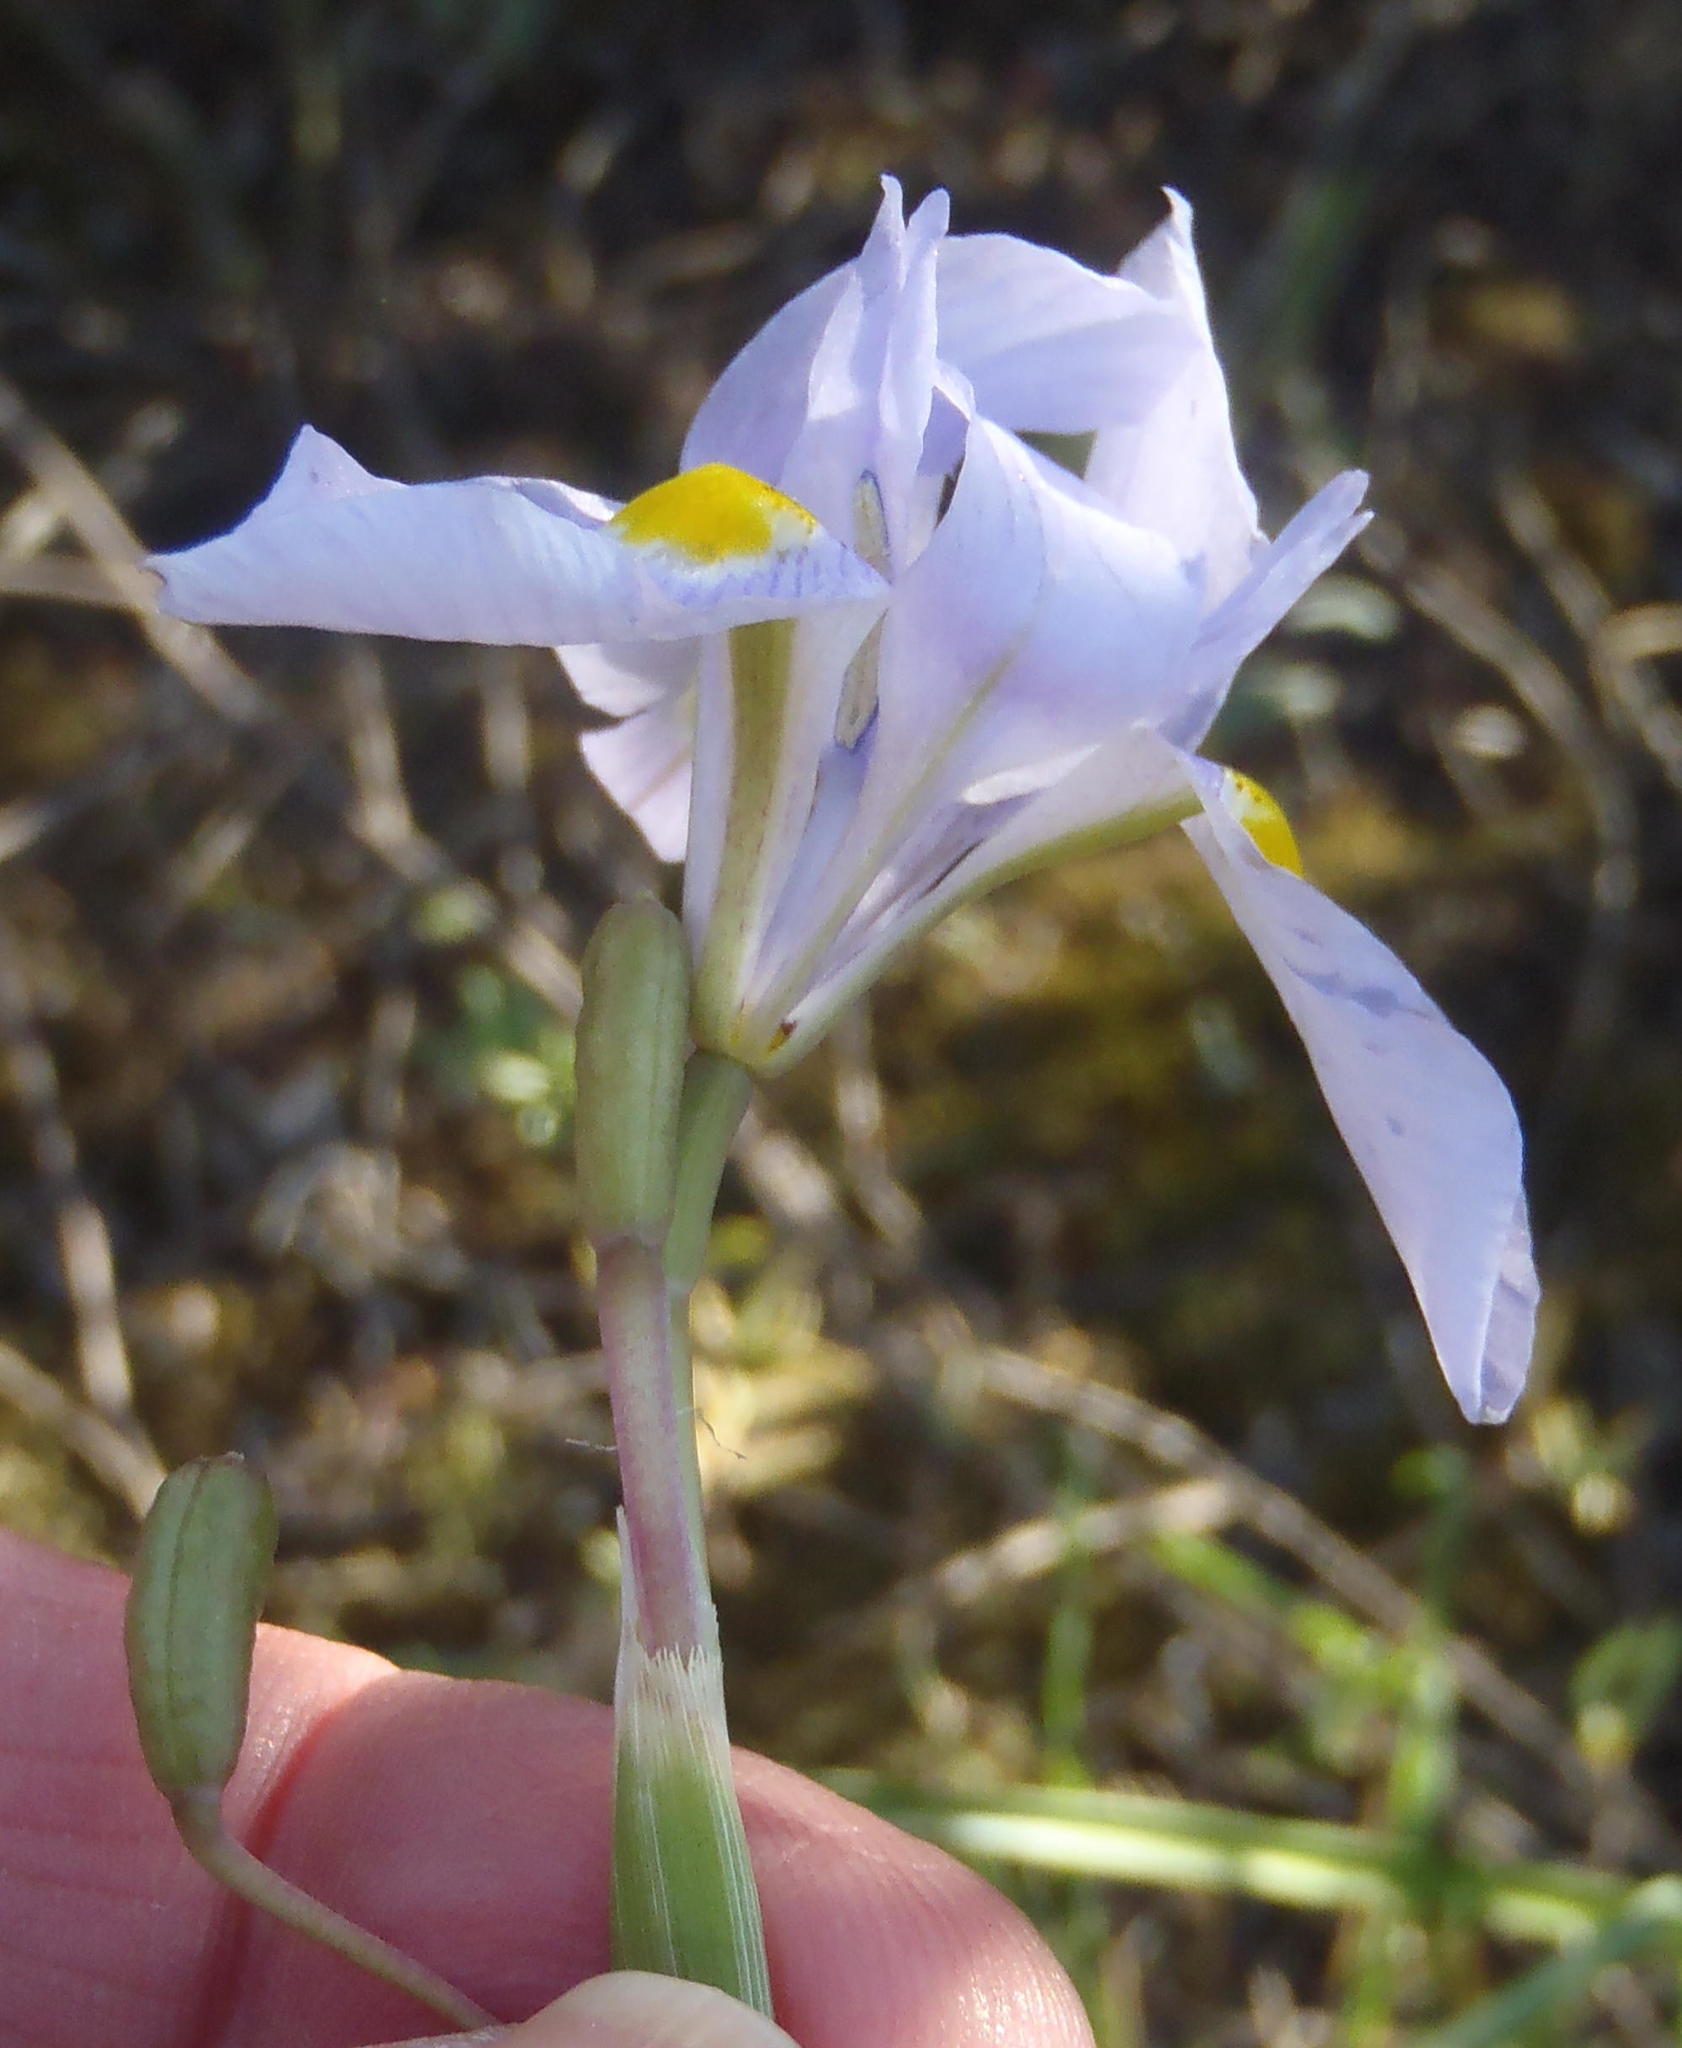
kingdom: Plantae
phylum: Tracheophyta
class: Liliopsida
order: Asparagales
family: Iridaceae
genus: Moraea
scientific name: Moraea polystachya
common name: Blue-tulip
